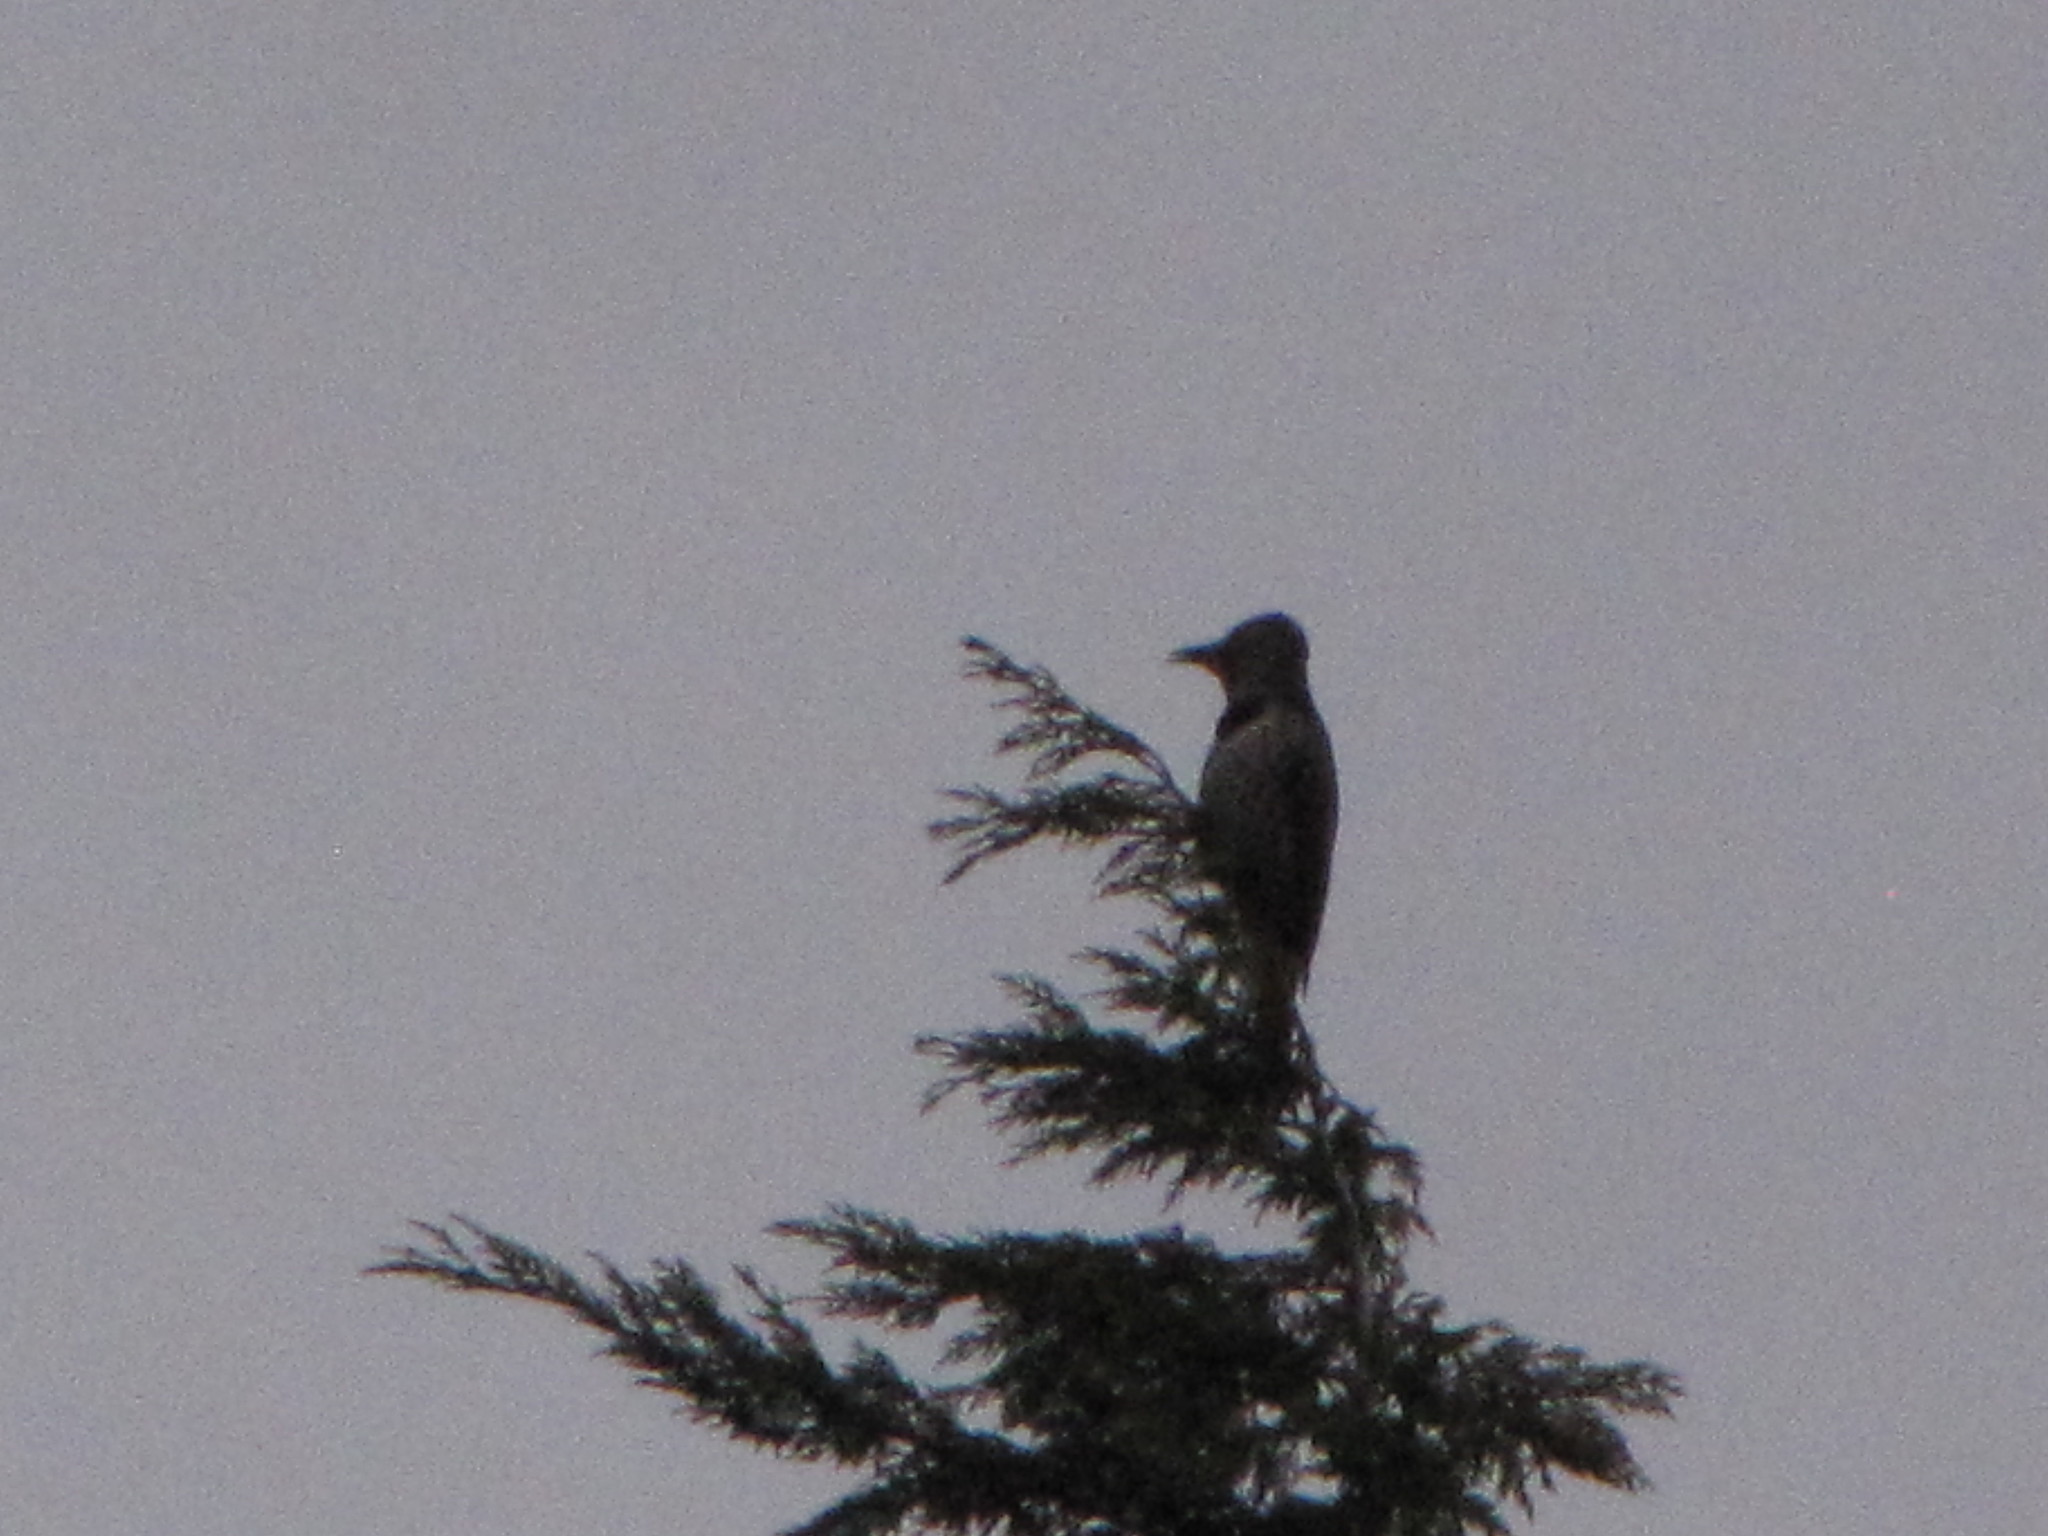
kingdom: Animalia
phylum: Chordata
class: Aves
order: Piciformes
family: Picidae
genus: Colaptes
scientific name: Colaptes auratus
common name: Northern flicker
